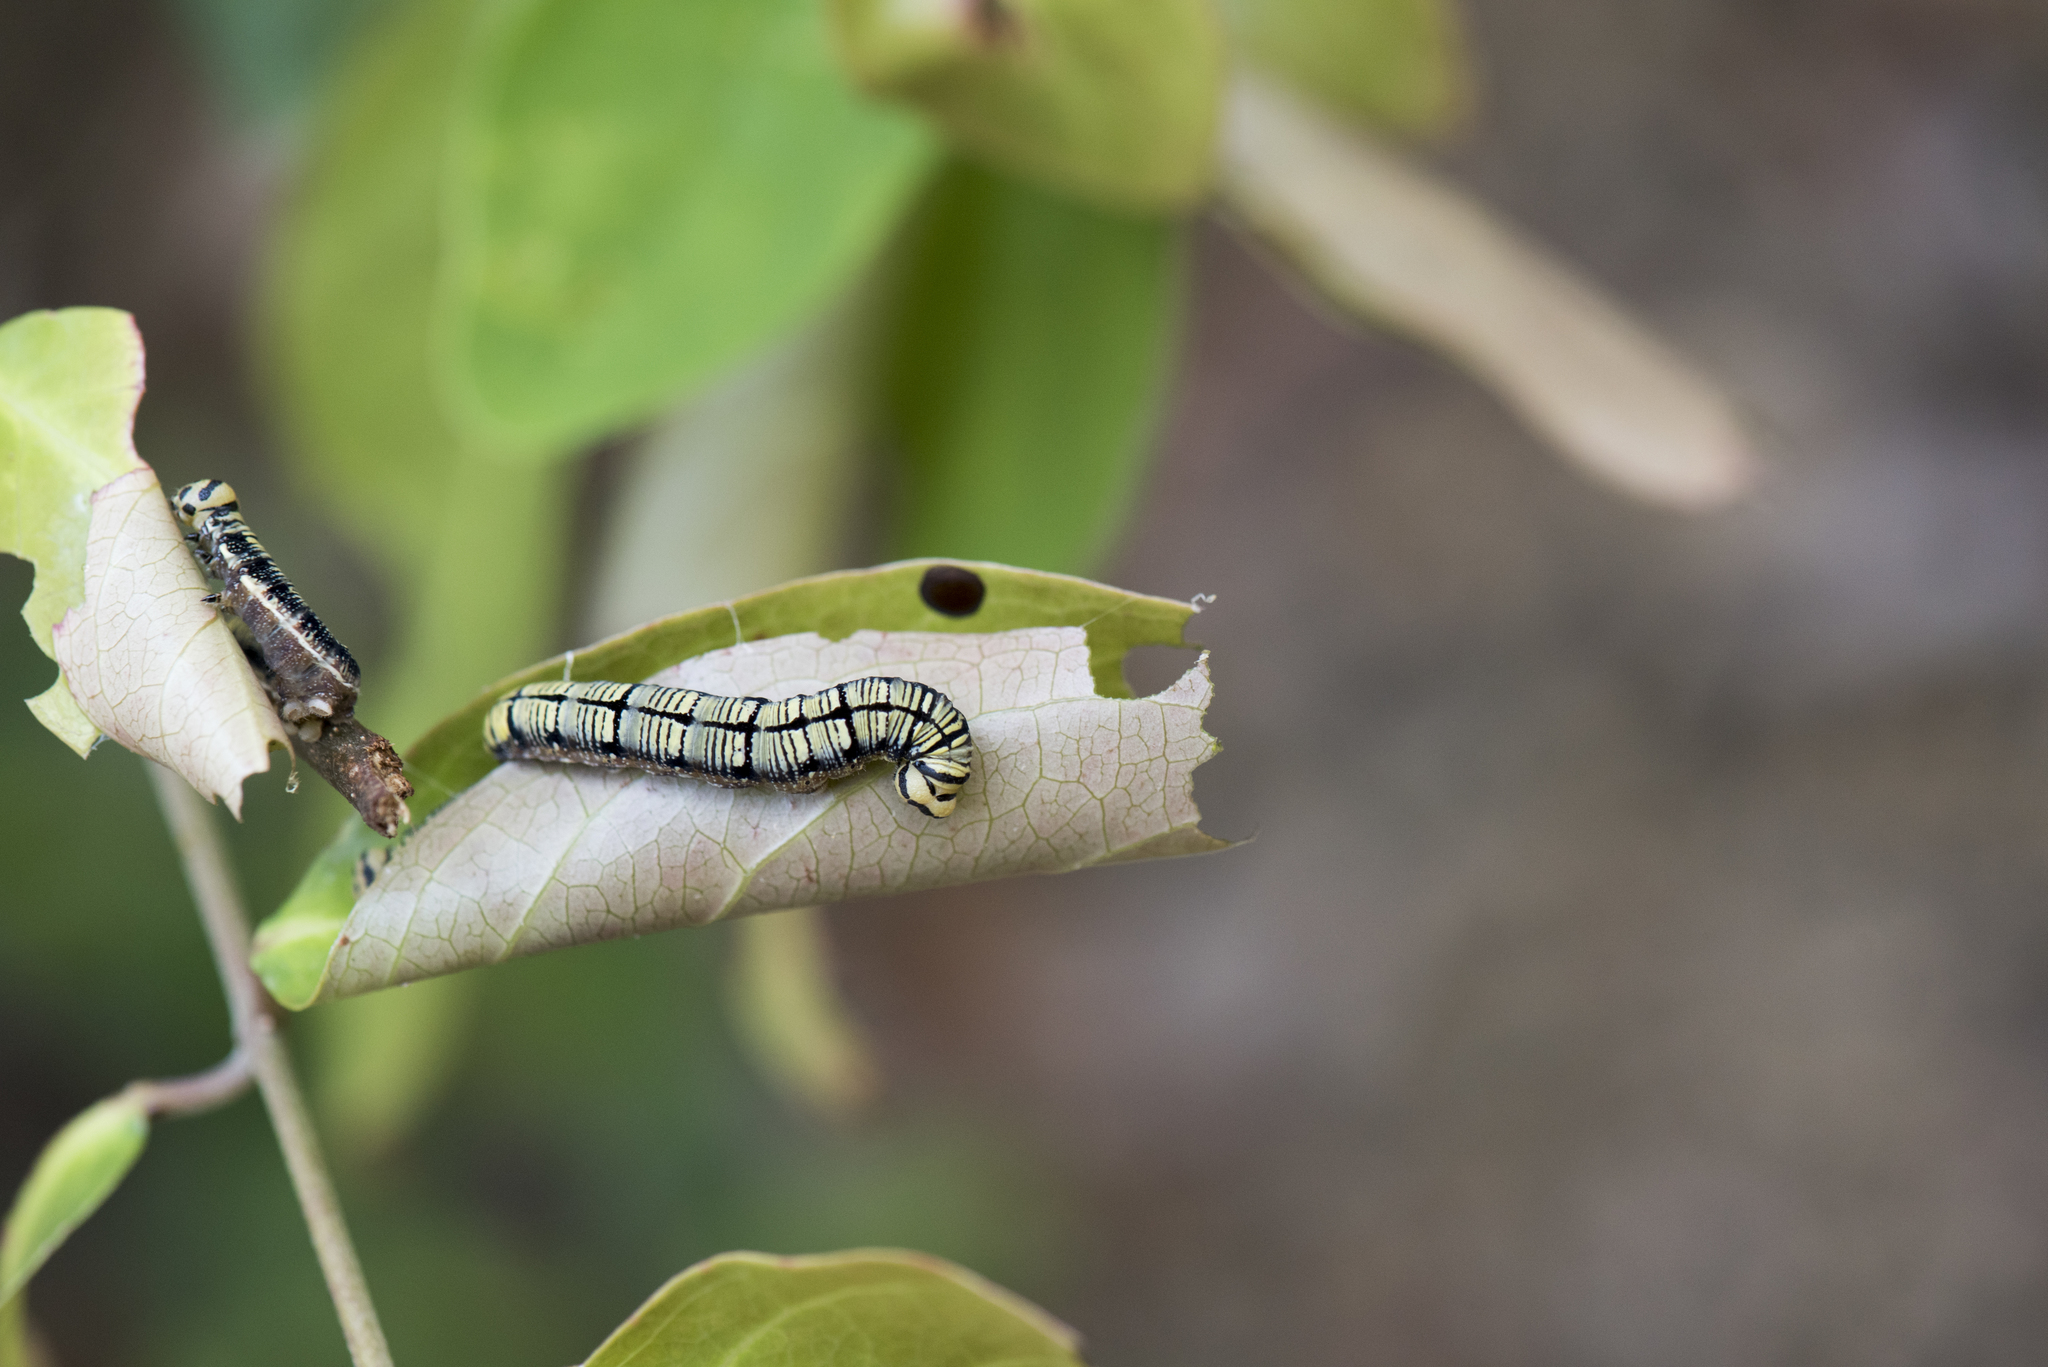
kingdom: Animalia
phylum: Arthropoda
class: Insecta
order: Lepidoptera
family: Hesperiidae
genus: Badamia
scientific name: Badamia exclamationis
